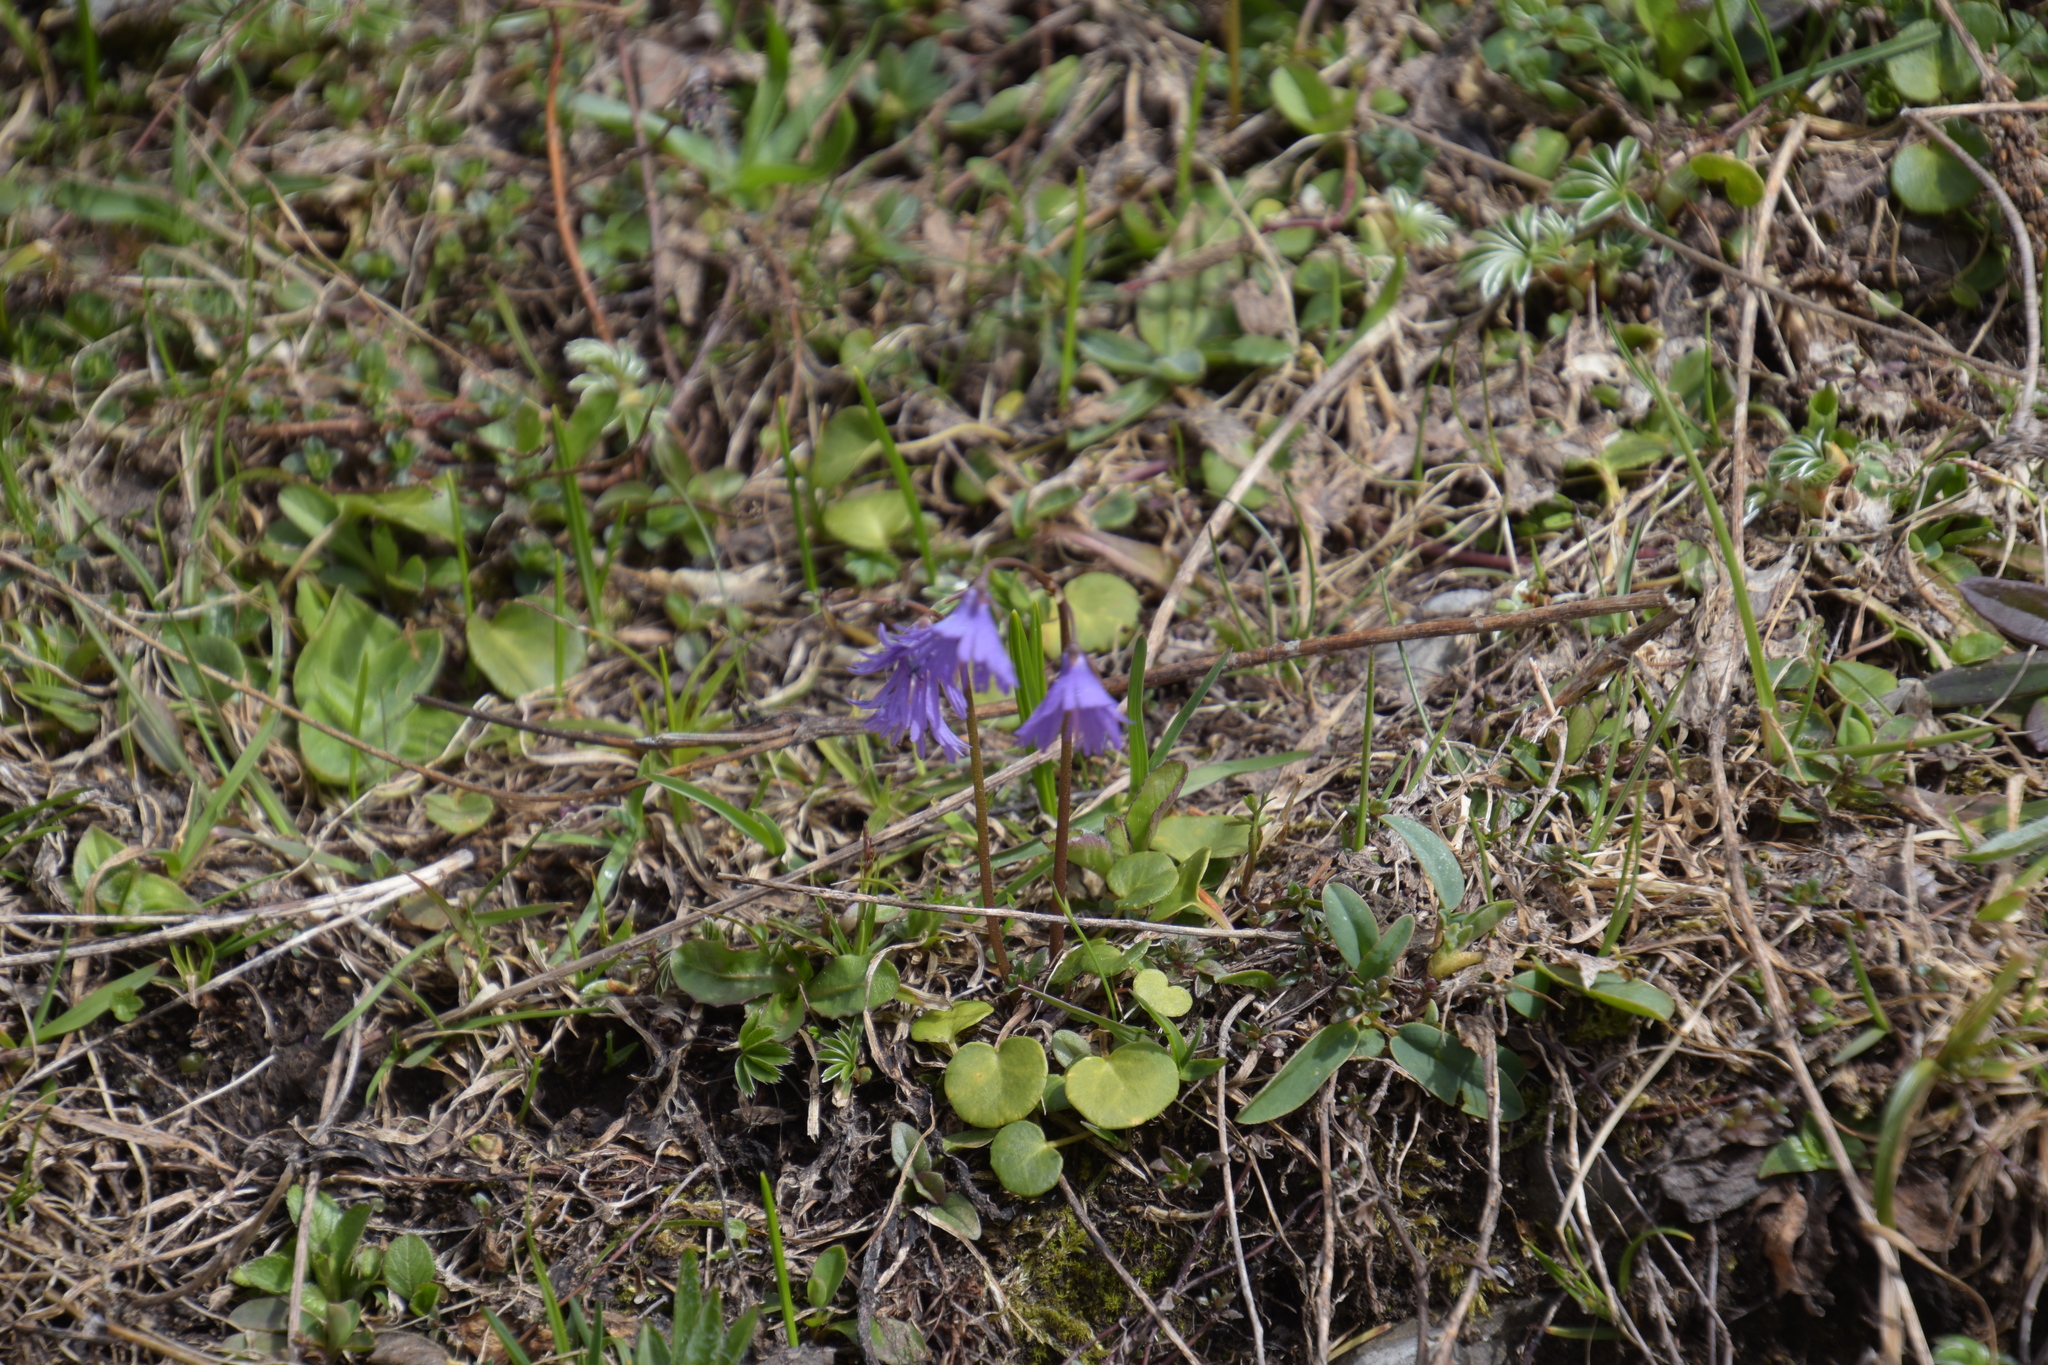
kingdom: Plantae
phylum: Tracheophyta
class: Magnoliopsida
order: Ericales
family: Primulaceae
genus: Soldanella
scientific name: Soldanella alpina
